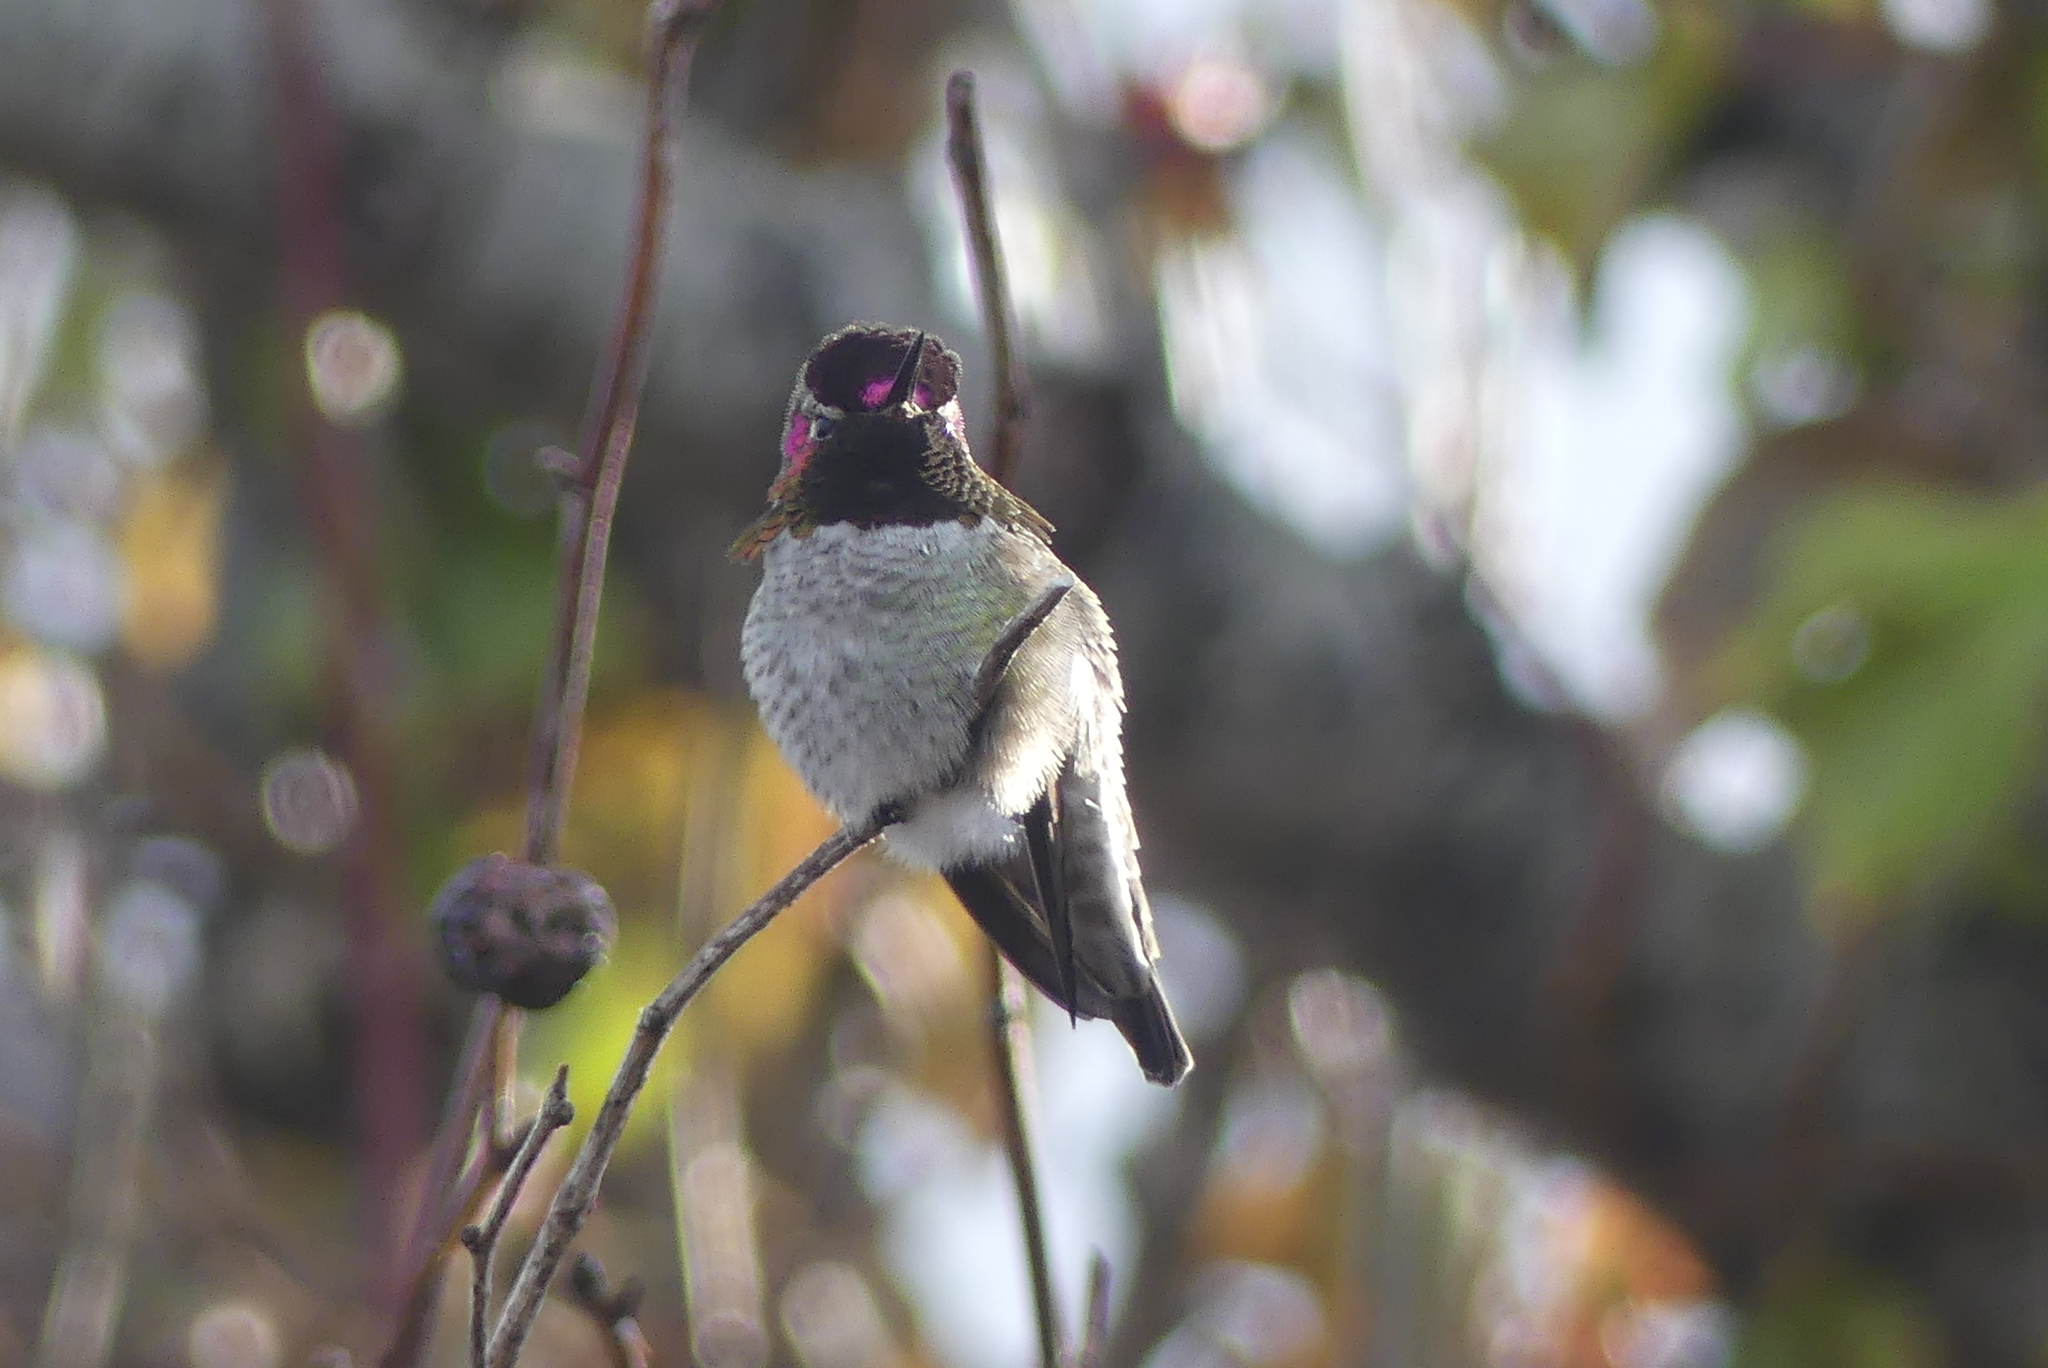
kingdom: Animalia
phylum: Chordata
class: Aves
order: Apodiformes
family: Trochilidae
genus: Calypte
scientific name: Calypte anna
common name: Anna's hummingbird
